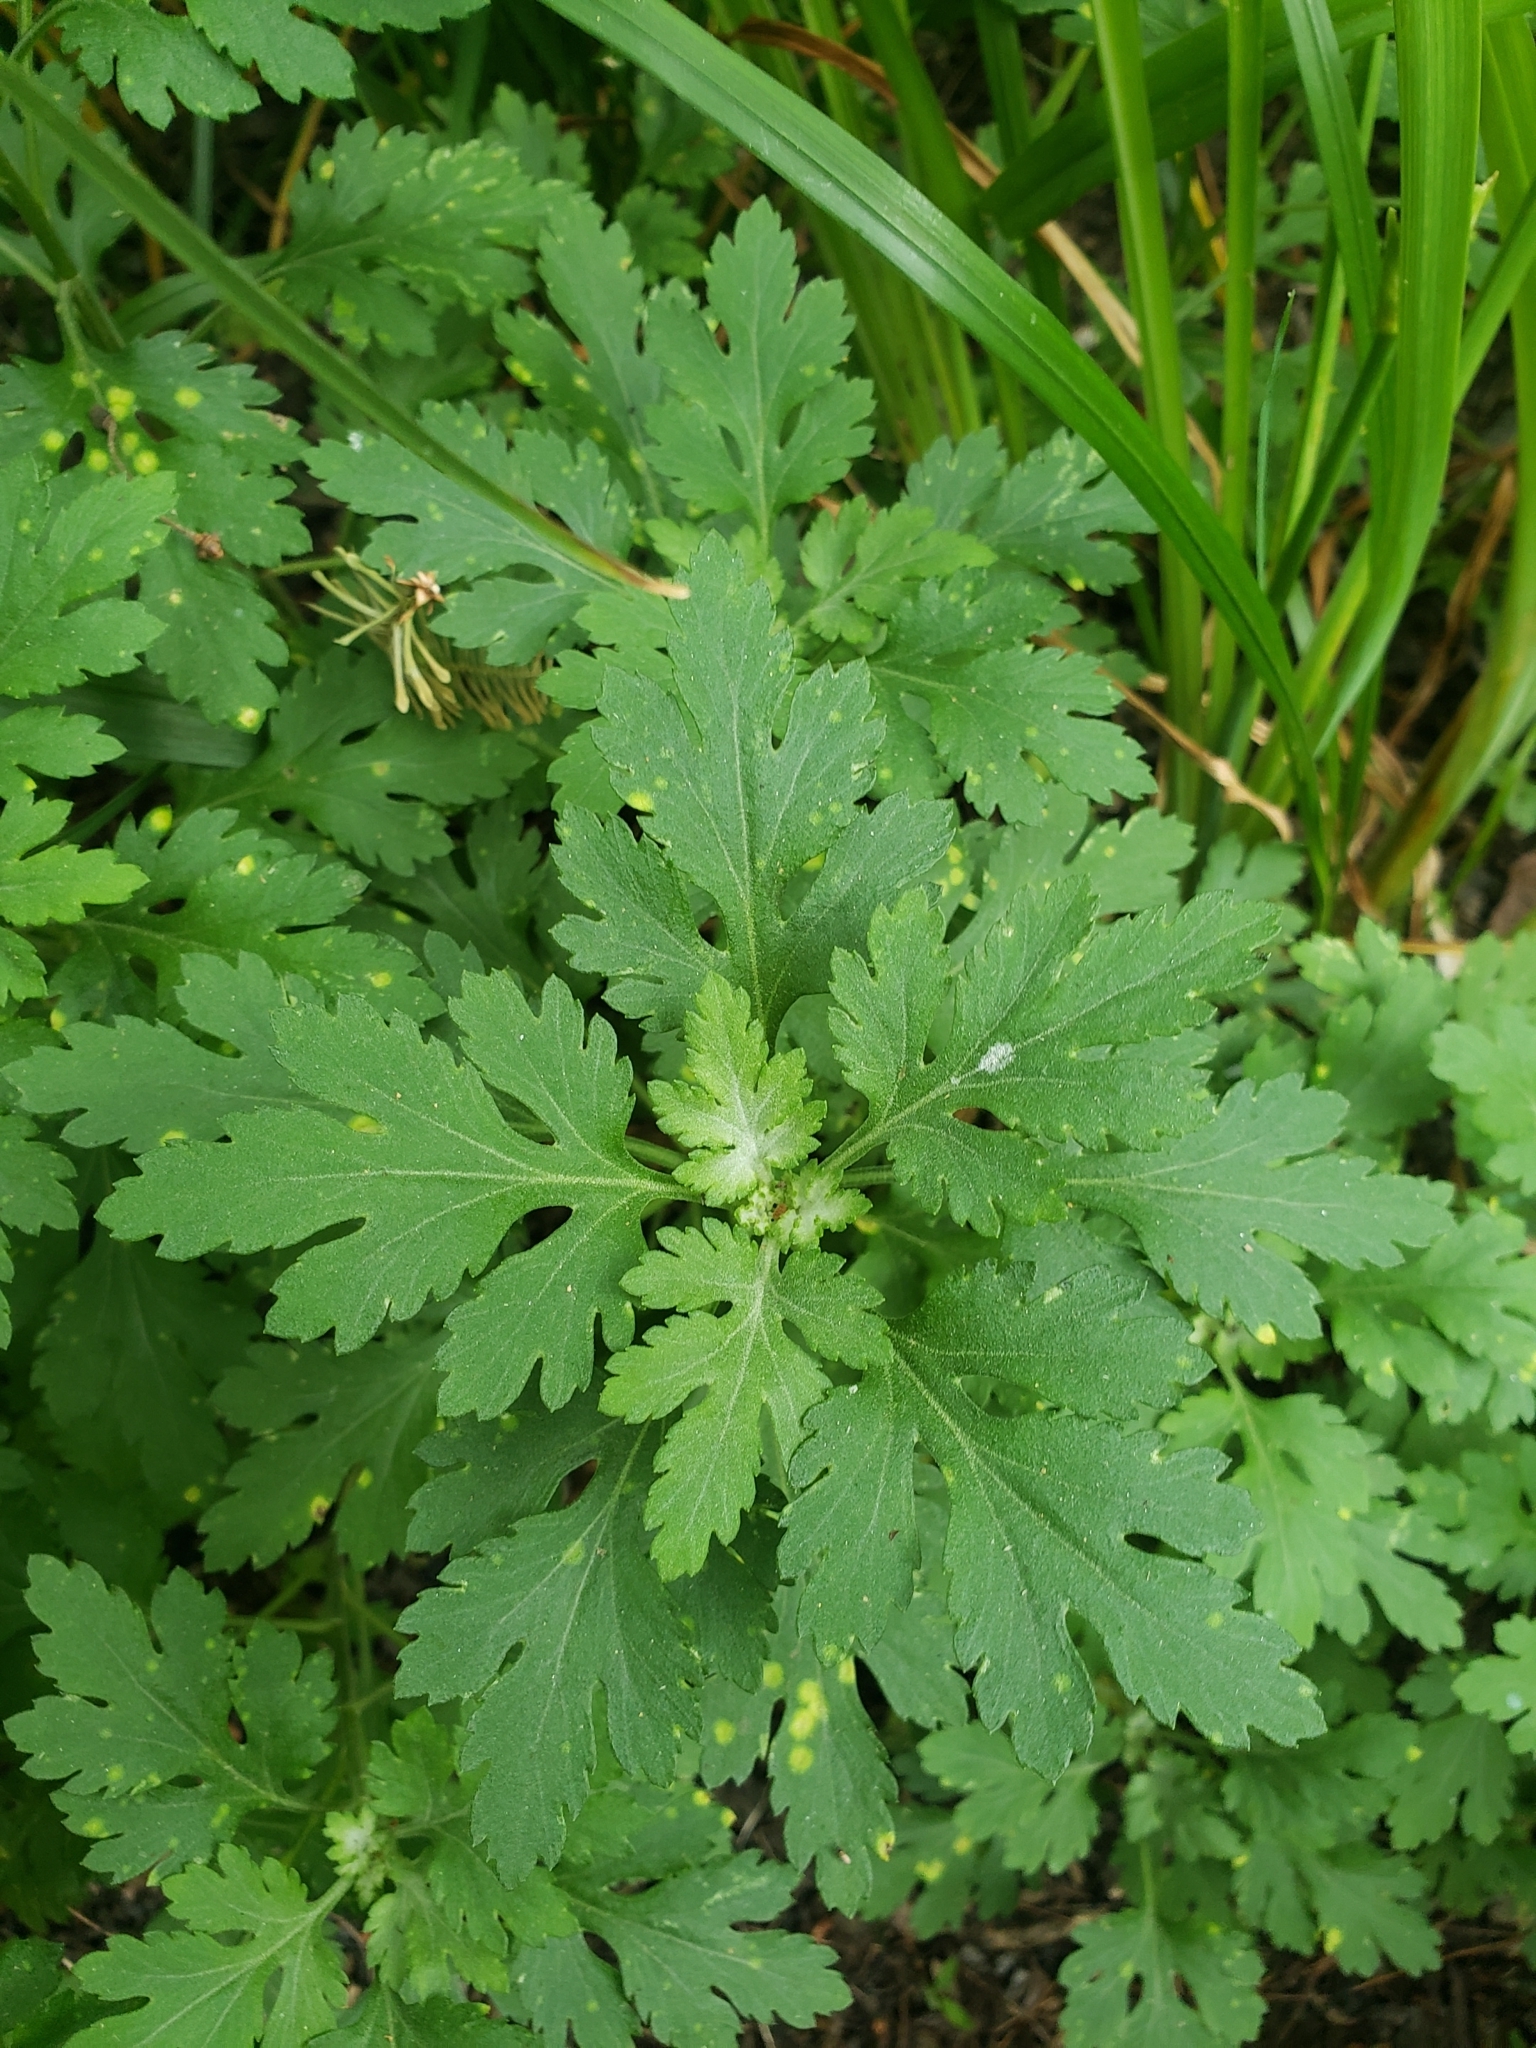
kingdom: Fungi
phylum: Basidiomycota
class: Pucciniomycetes
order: Pucciniales
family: Pucciniaceae
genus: Puccinia
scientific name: Puccinia horiana
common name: Chrysanthemum white rust
